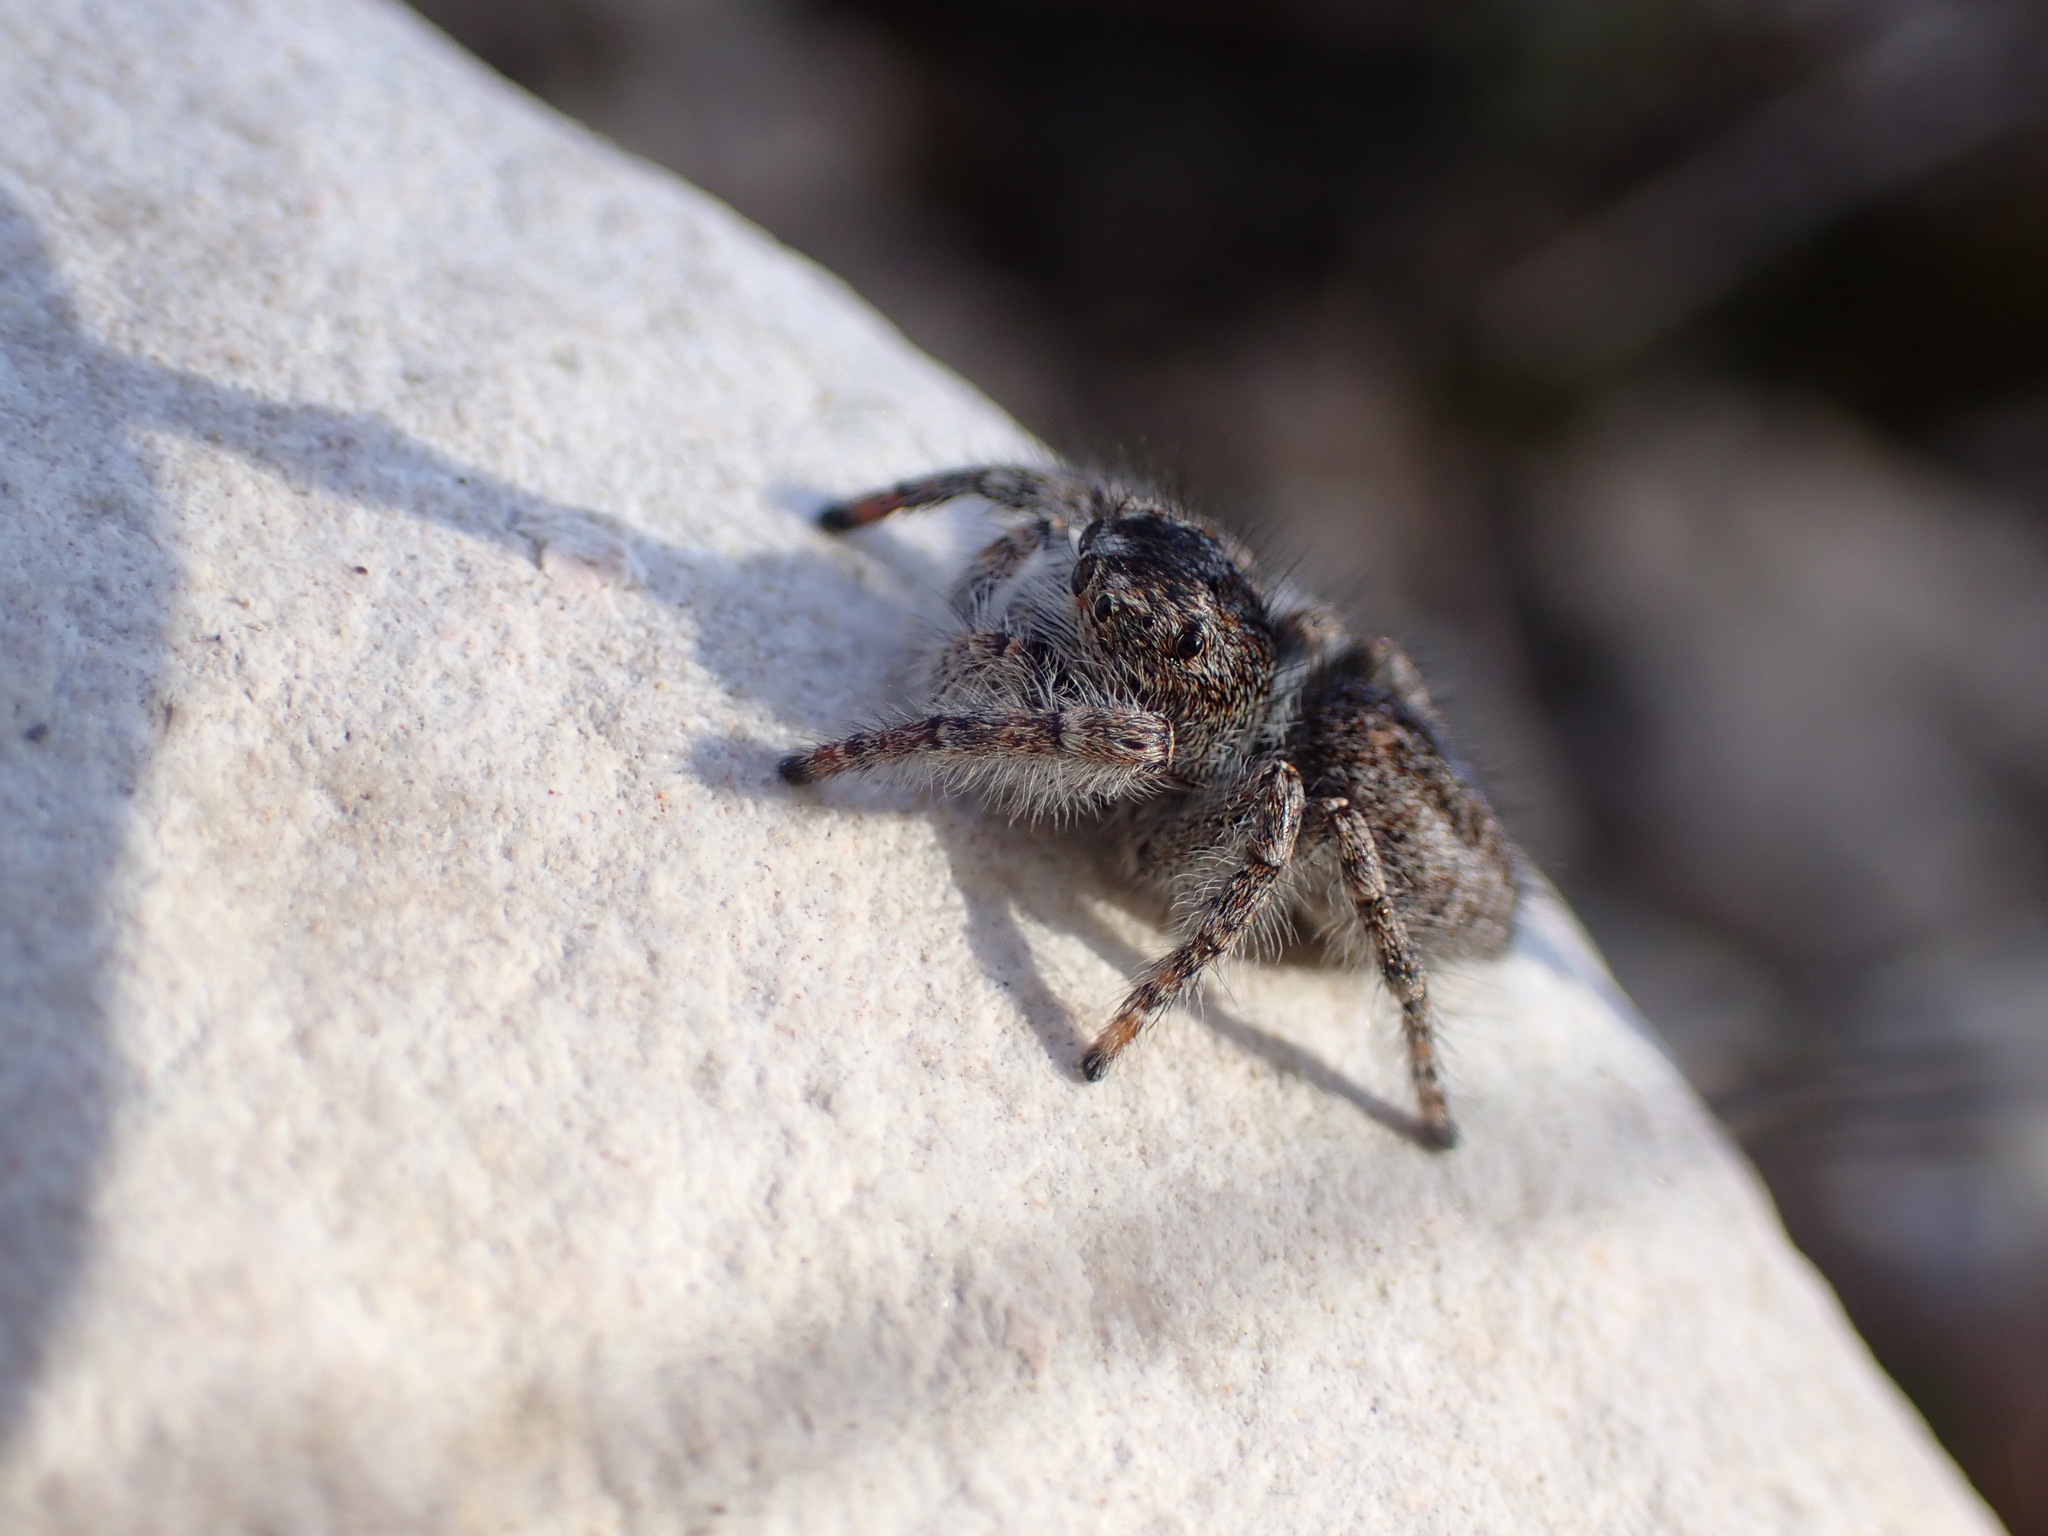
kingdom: Animalia
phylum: Arthropoda
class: Arachnida
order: Araneae
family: Salticidae
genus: Philaeus
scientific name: Philaeus chrysops
